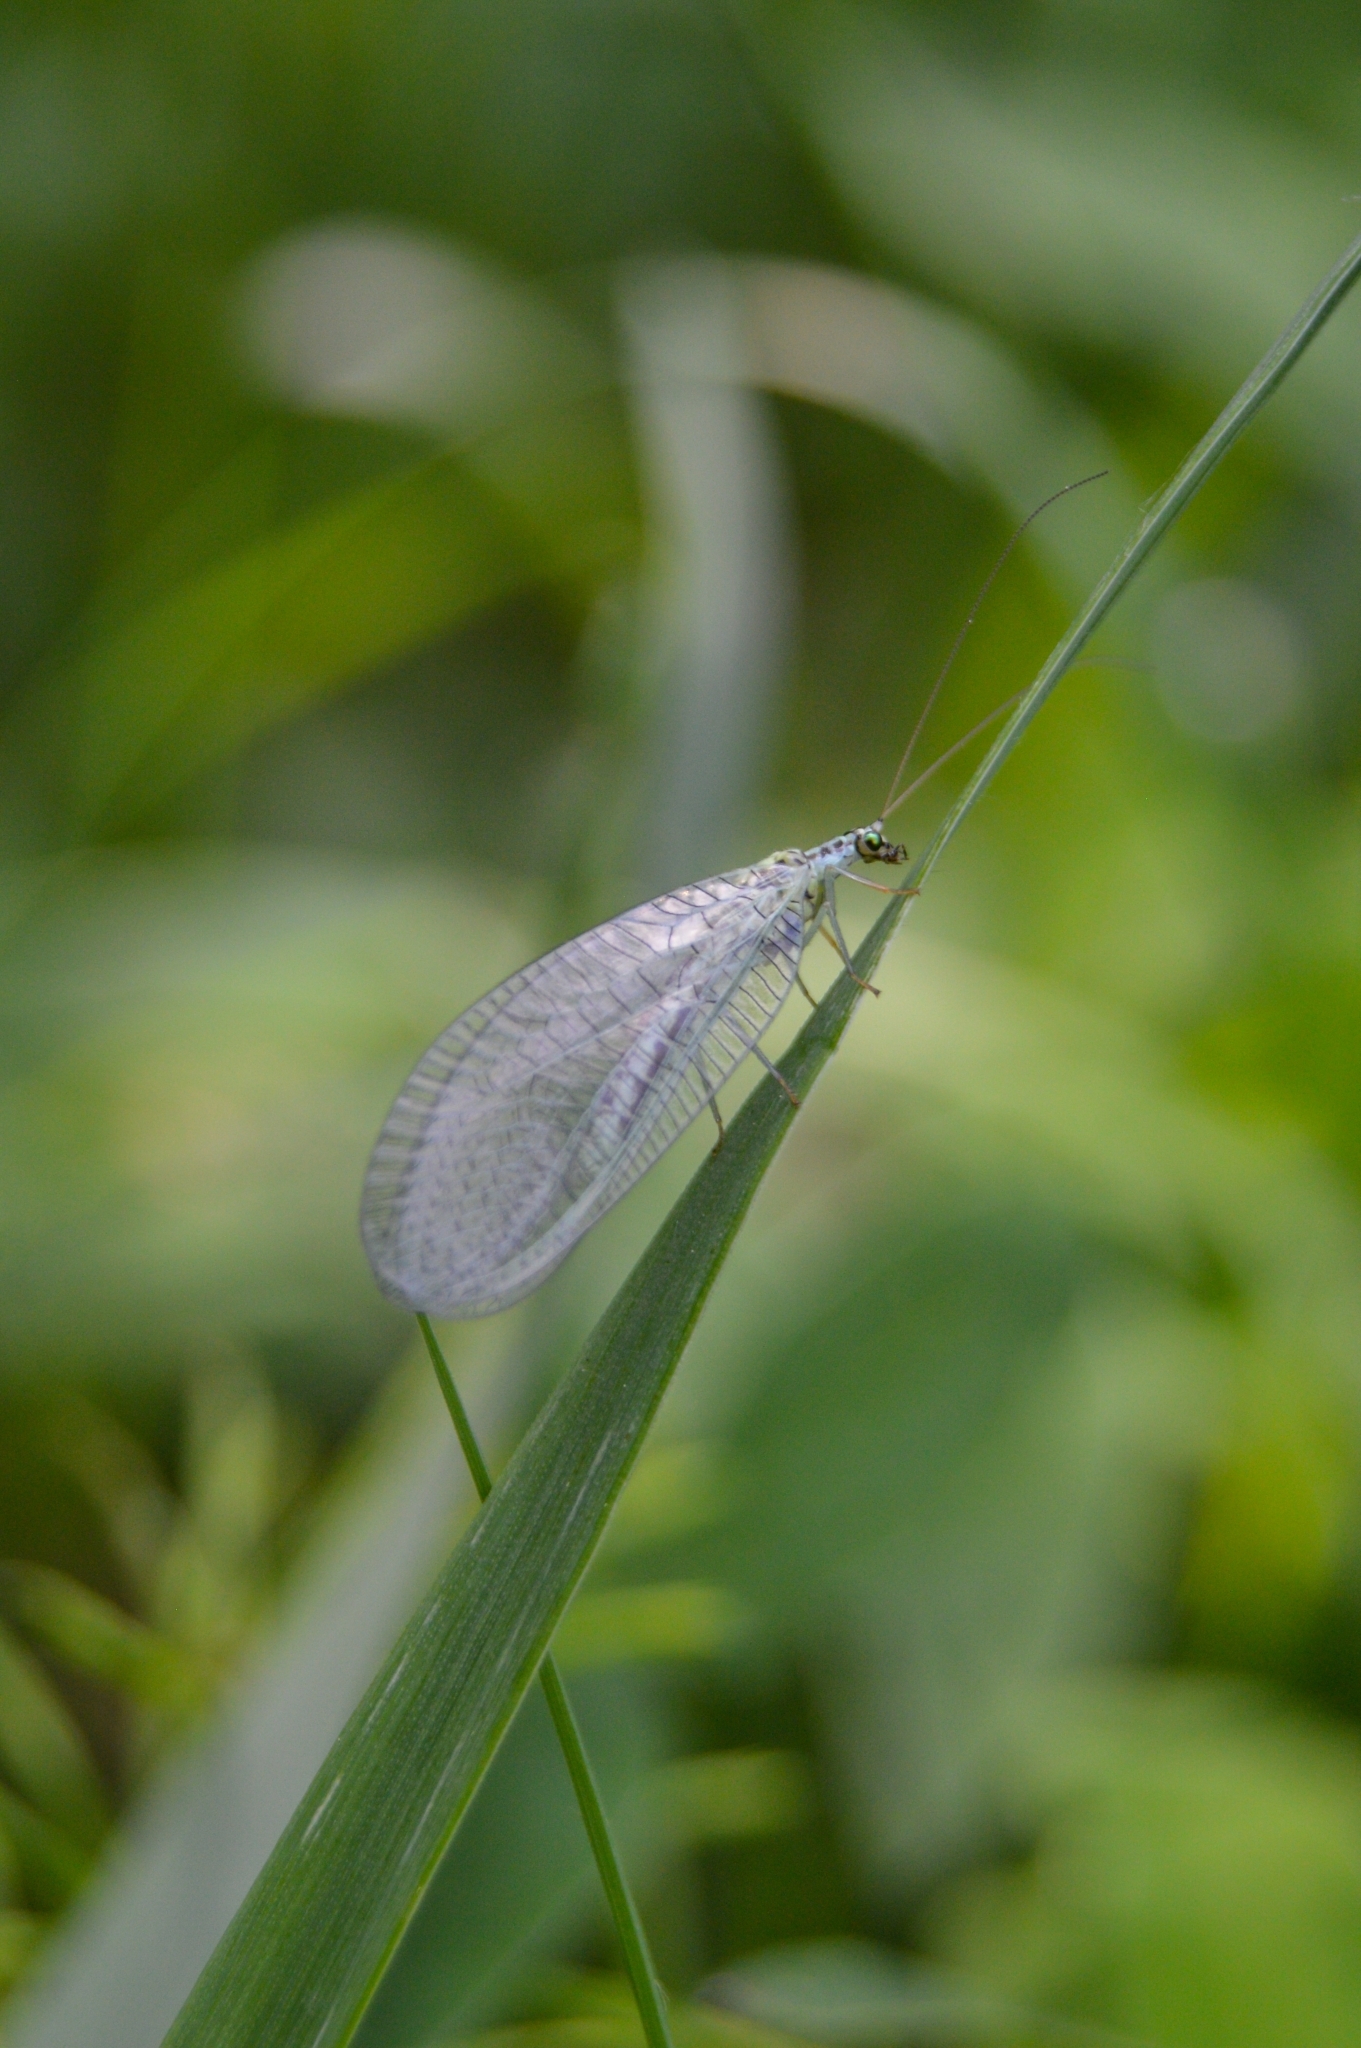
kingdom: Animalia
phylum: Arthropoda
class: Insecta
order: Neuroptera
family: Chrysopidae
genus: Chrysopa
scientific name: Chrysopa perla
